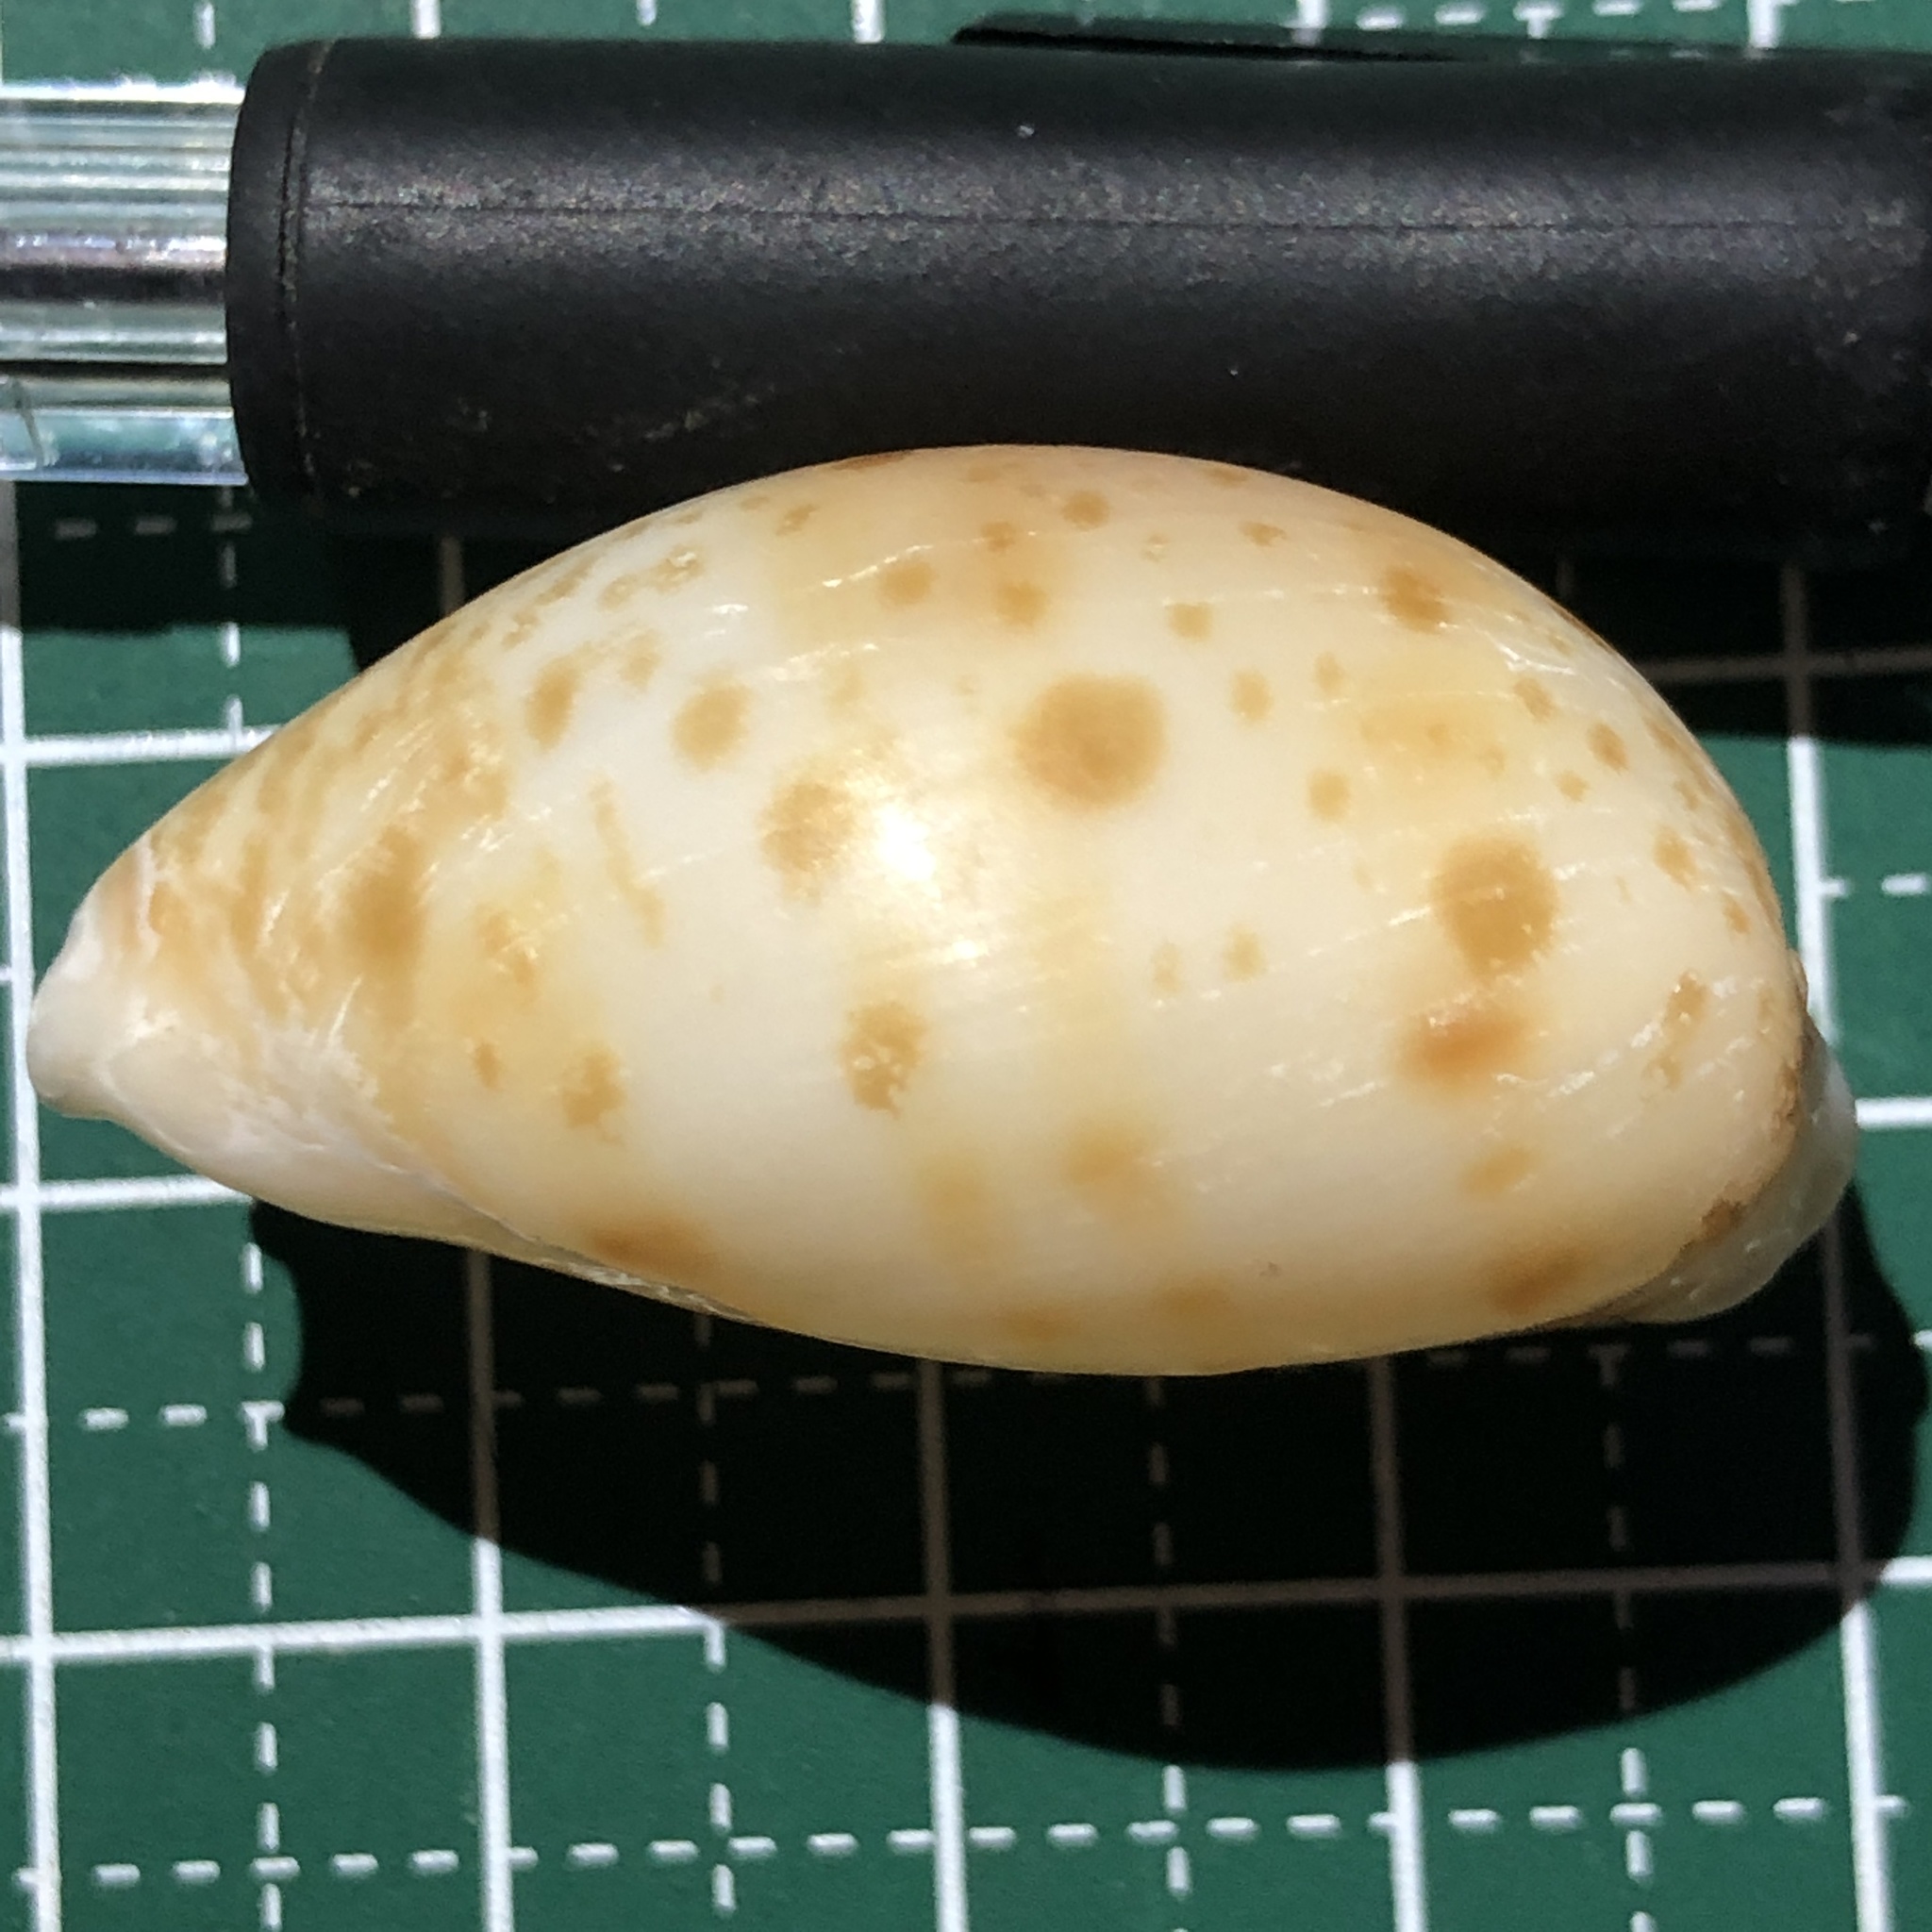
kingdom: Animalia
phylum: Mollusca
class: Gastropoda
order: Littorinimorpha
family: Cypraeidae
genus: Lyncina
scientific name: Lyncina lynx
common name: Bobcat cowrie
